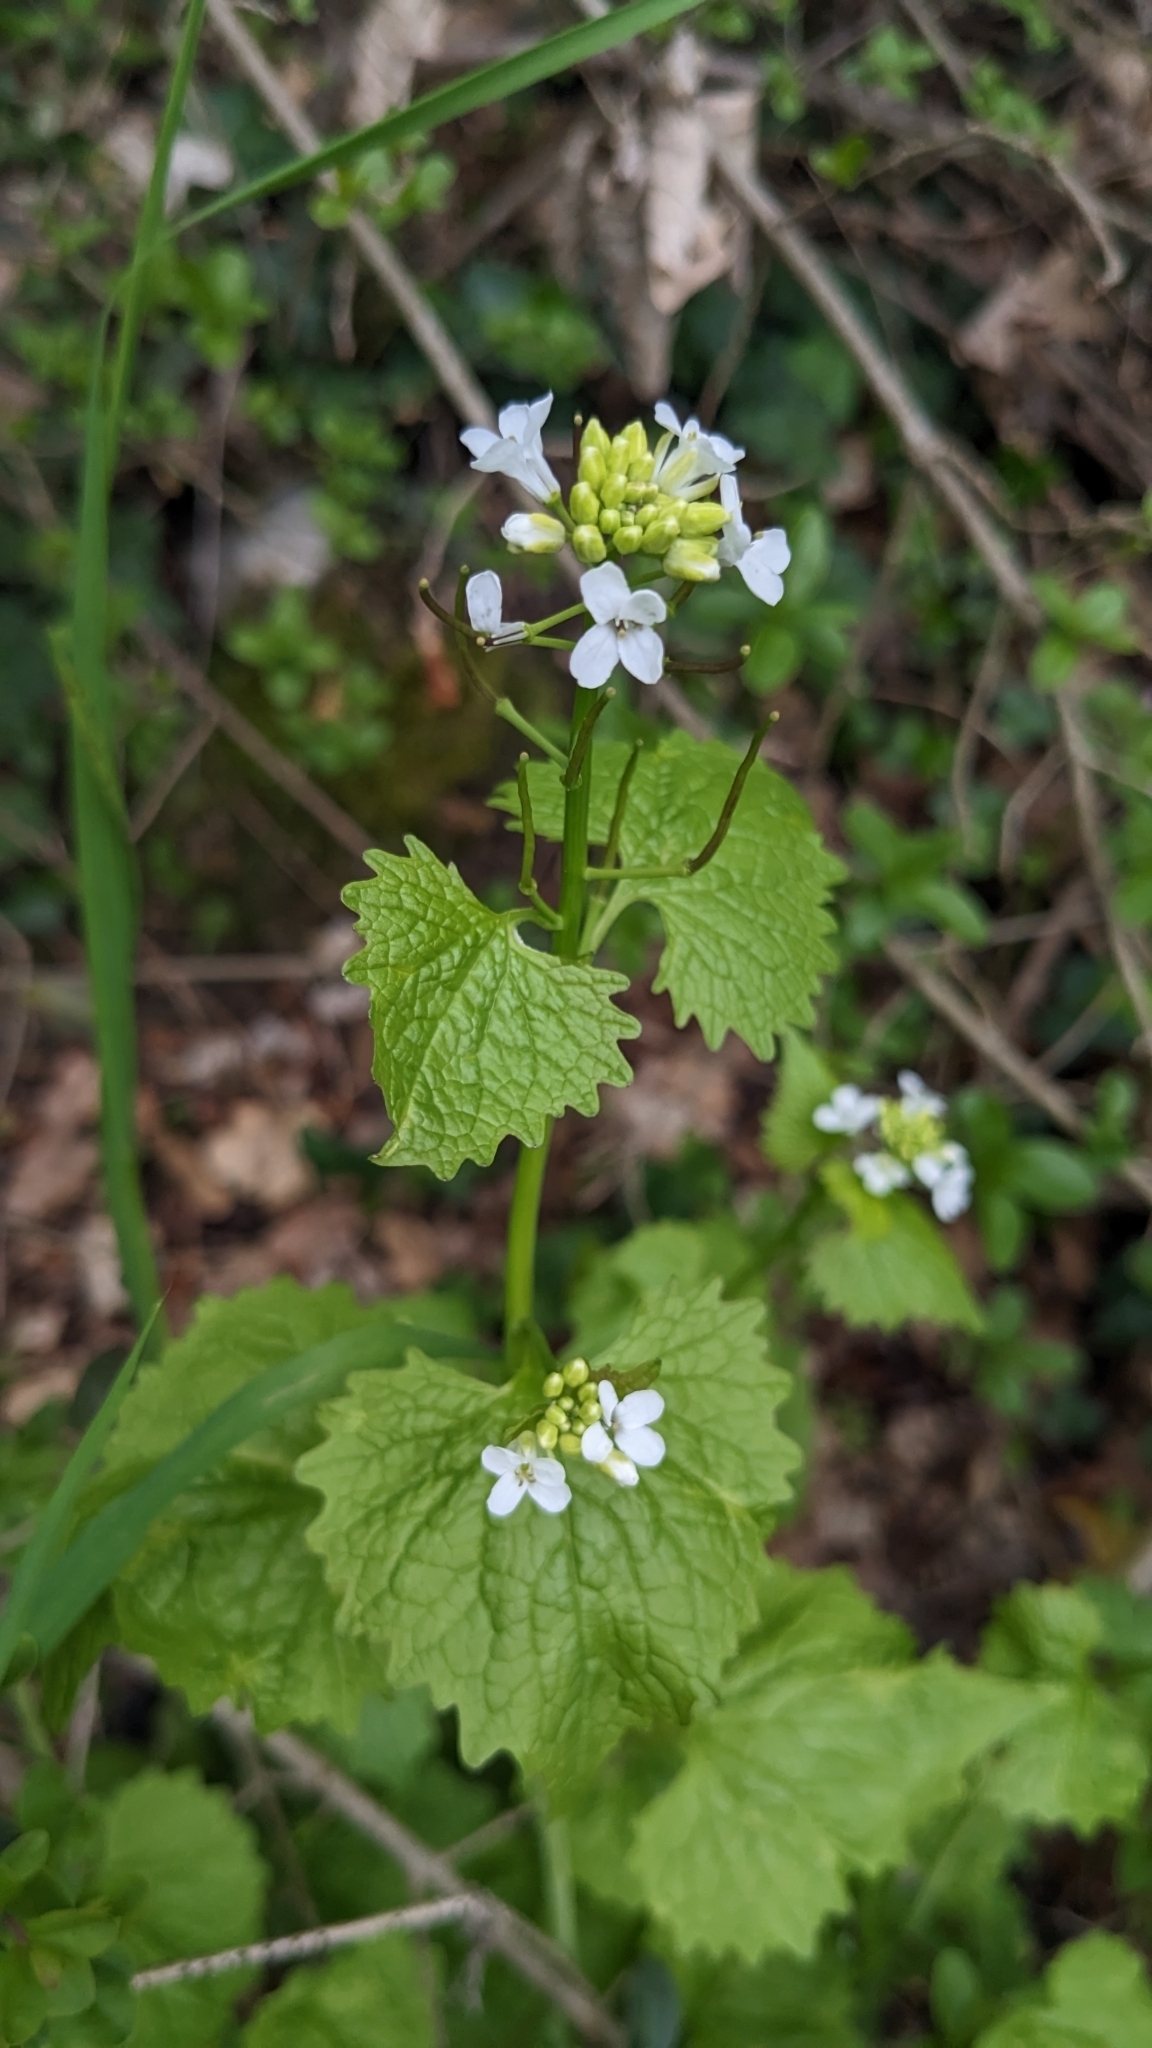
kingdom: Plantae
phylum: Tracheophyta
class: Magnoliopsida
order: Brassicales
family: Brassicaceae
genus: Alliaria
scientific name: Alliaria petiolata
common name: Garlic mustard
